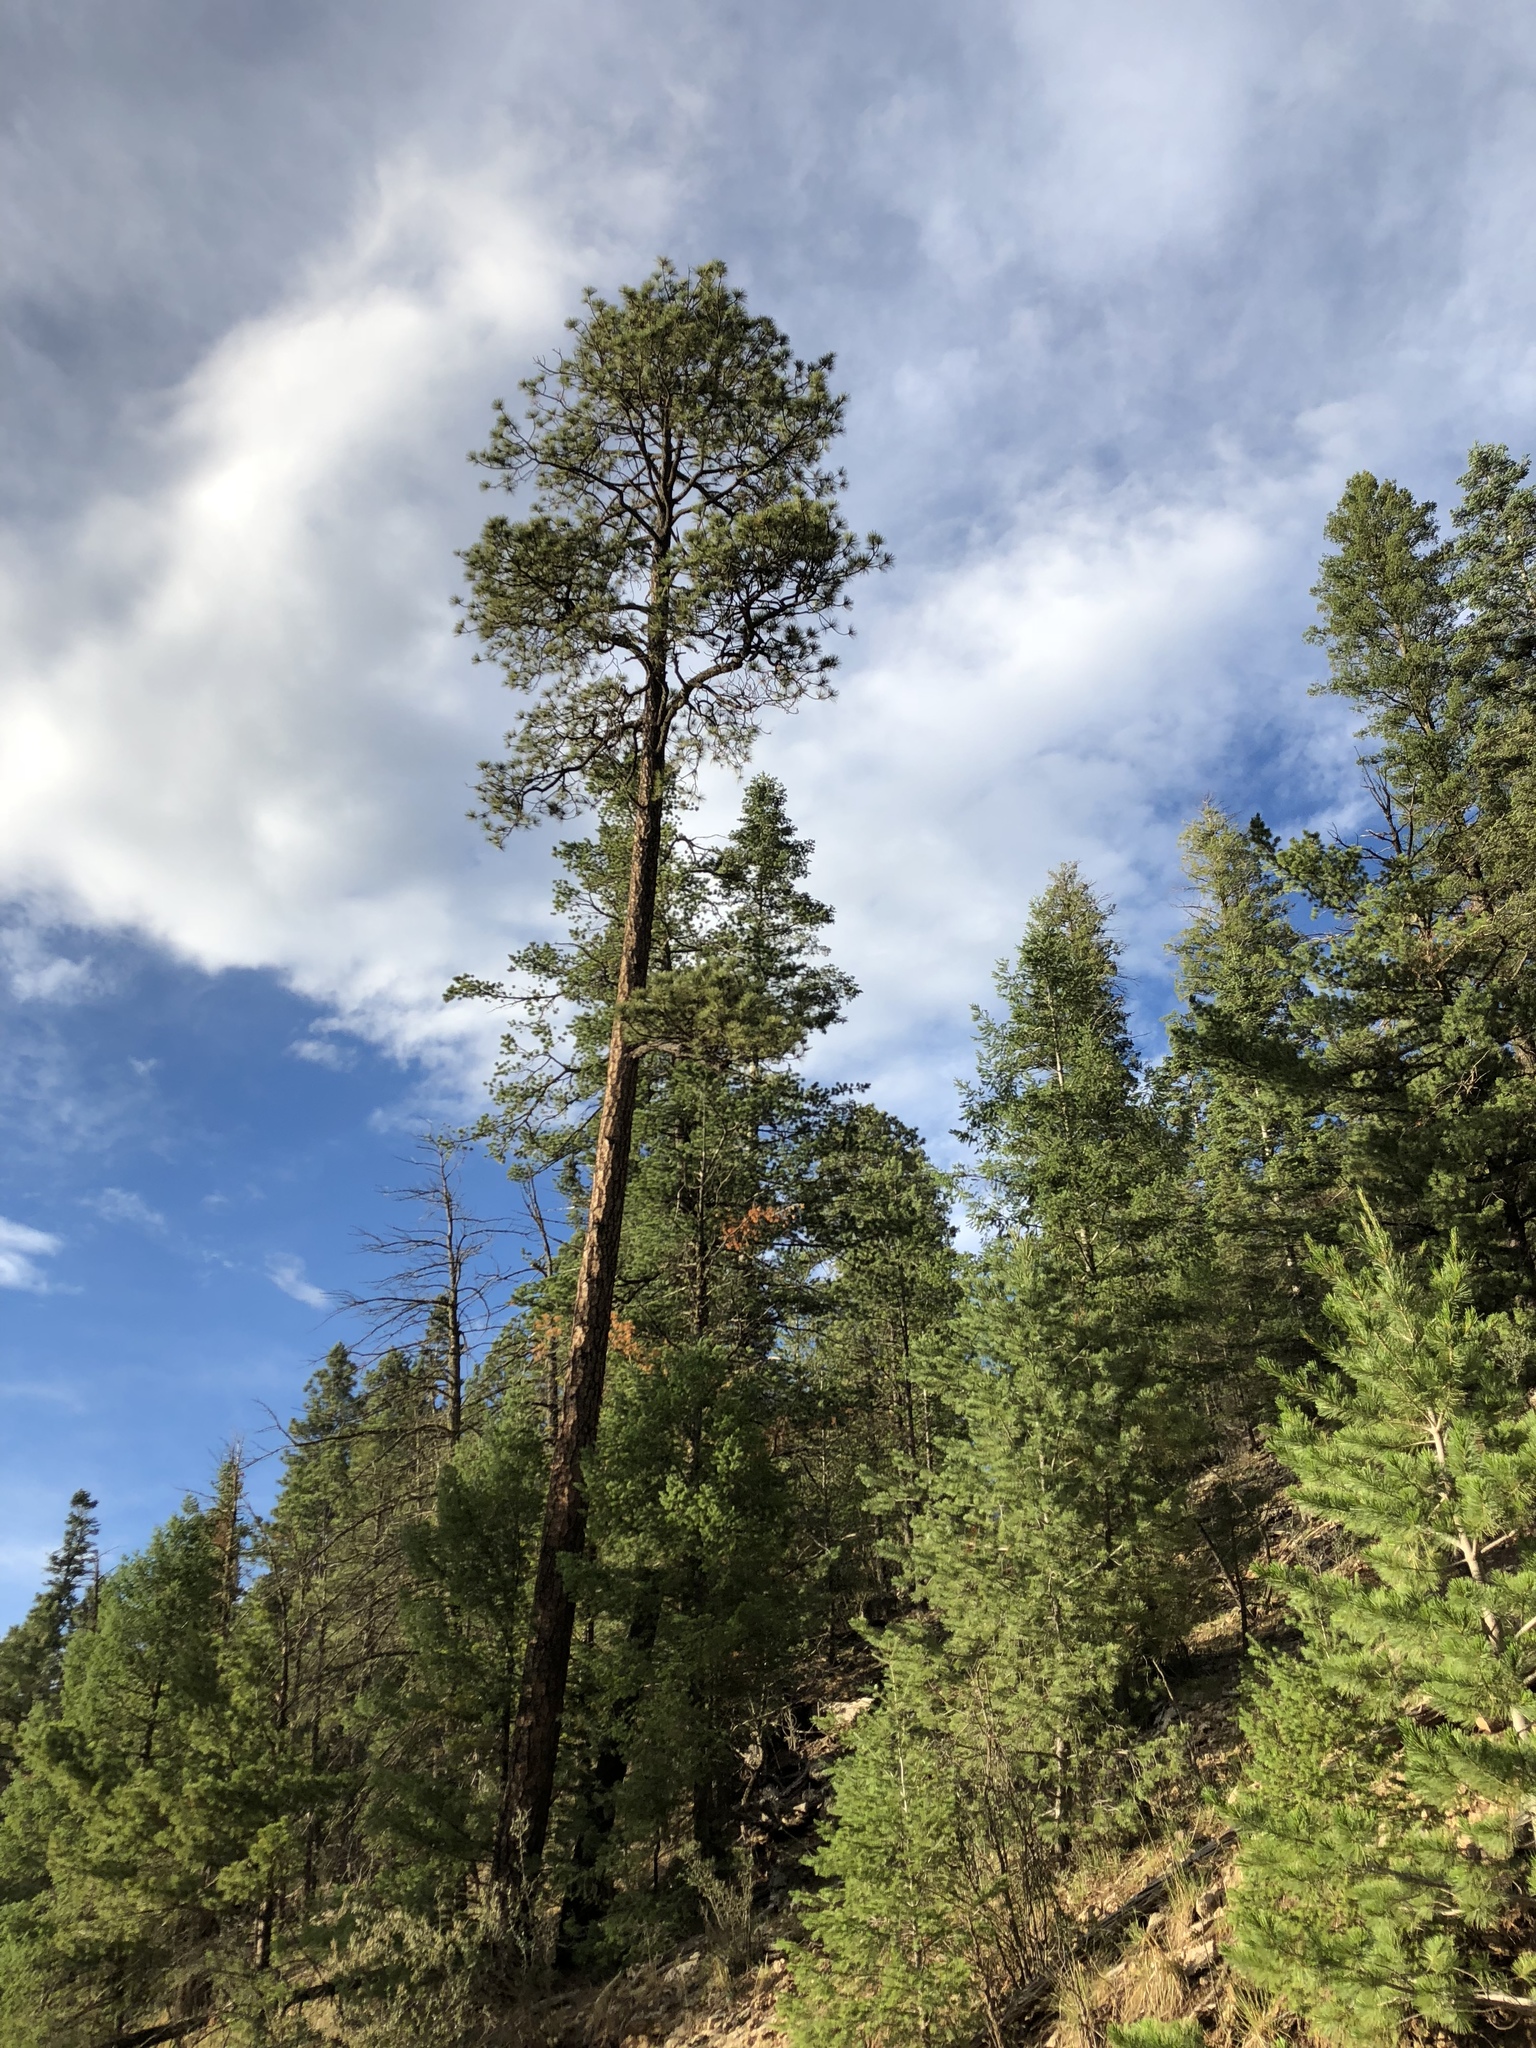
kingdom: Plantae
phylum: Tracheophyta
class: Pinopsida
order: Pinales
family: Pinaceae
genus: Pinus
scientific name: Pinus ponderosa
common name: Western yellow-pine
